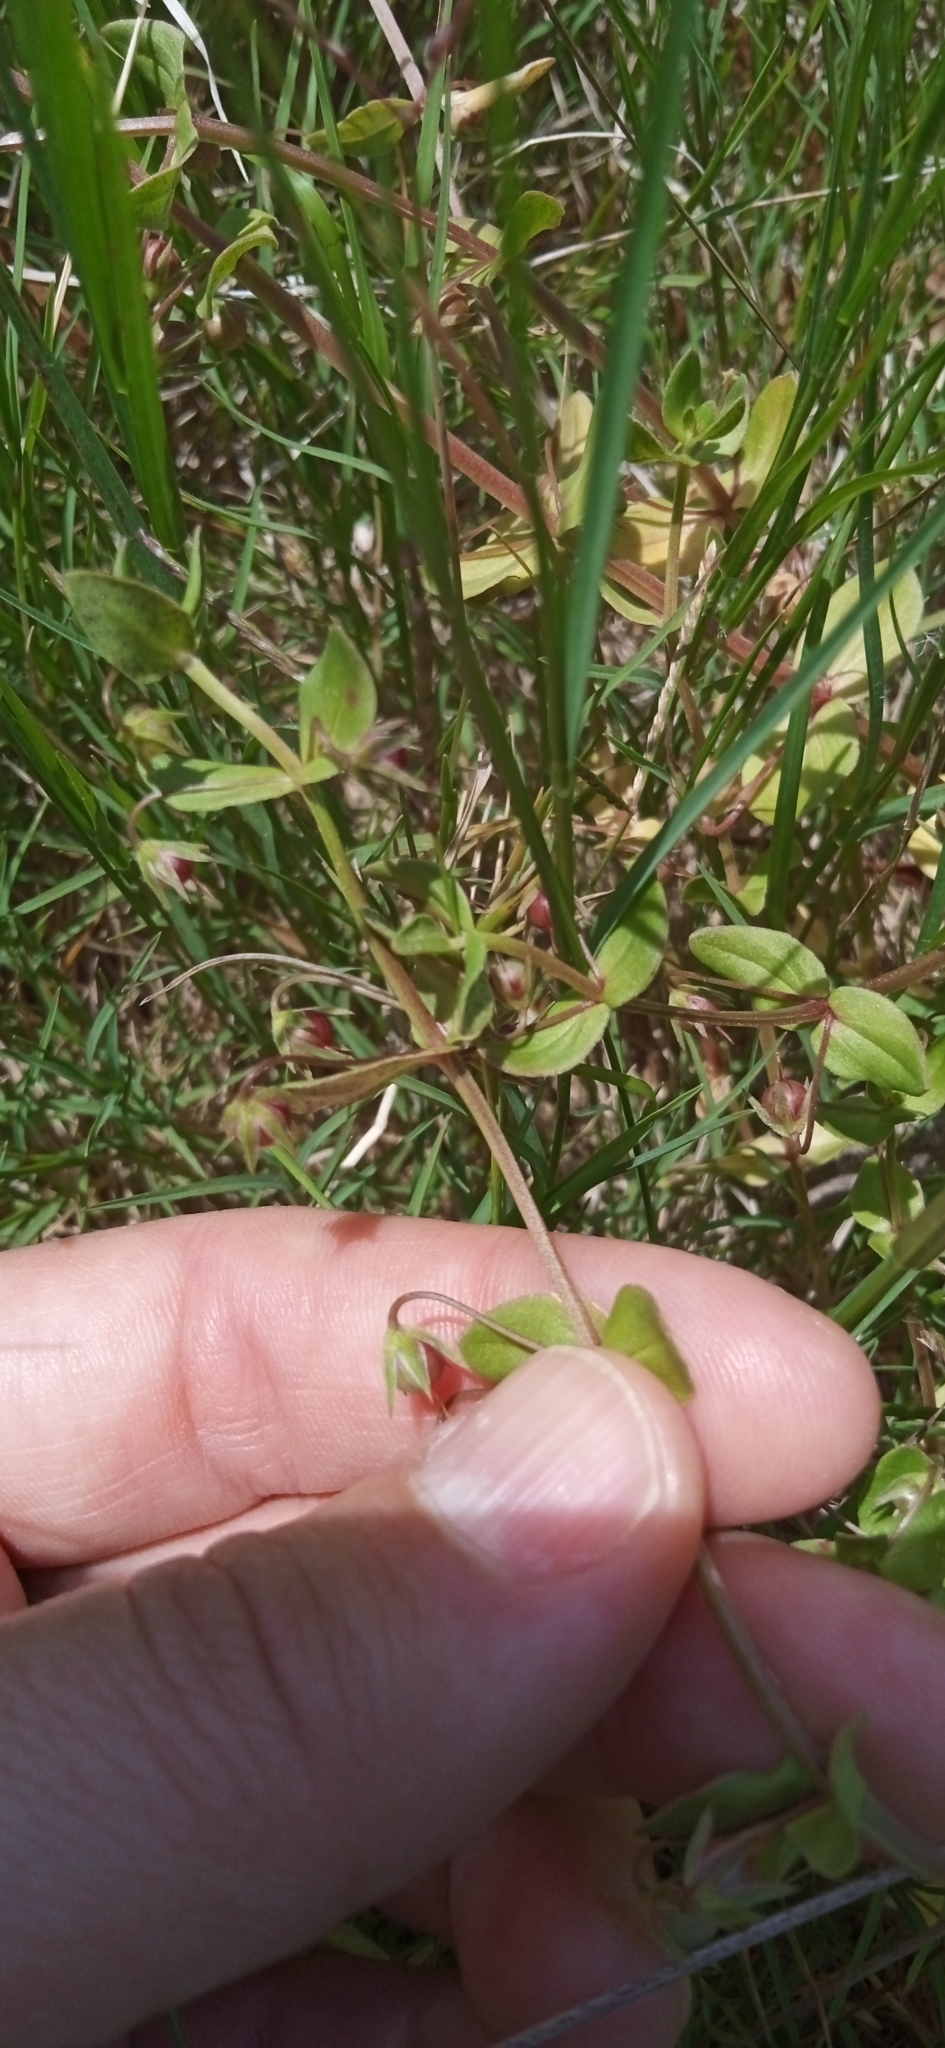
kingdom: Plantae
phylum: Tracheophyta
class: Magnoliopsida
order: Ericales
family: Primulaceae
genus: Lysimachia
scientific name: Lysimachia arvensis
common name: Scarlet pimpernel
